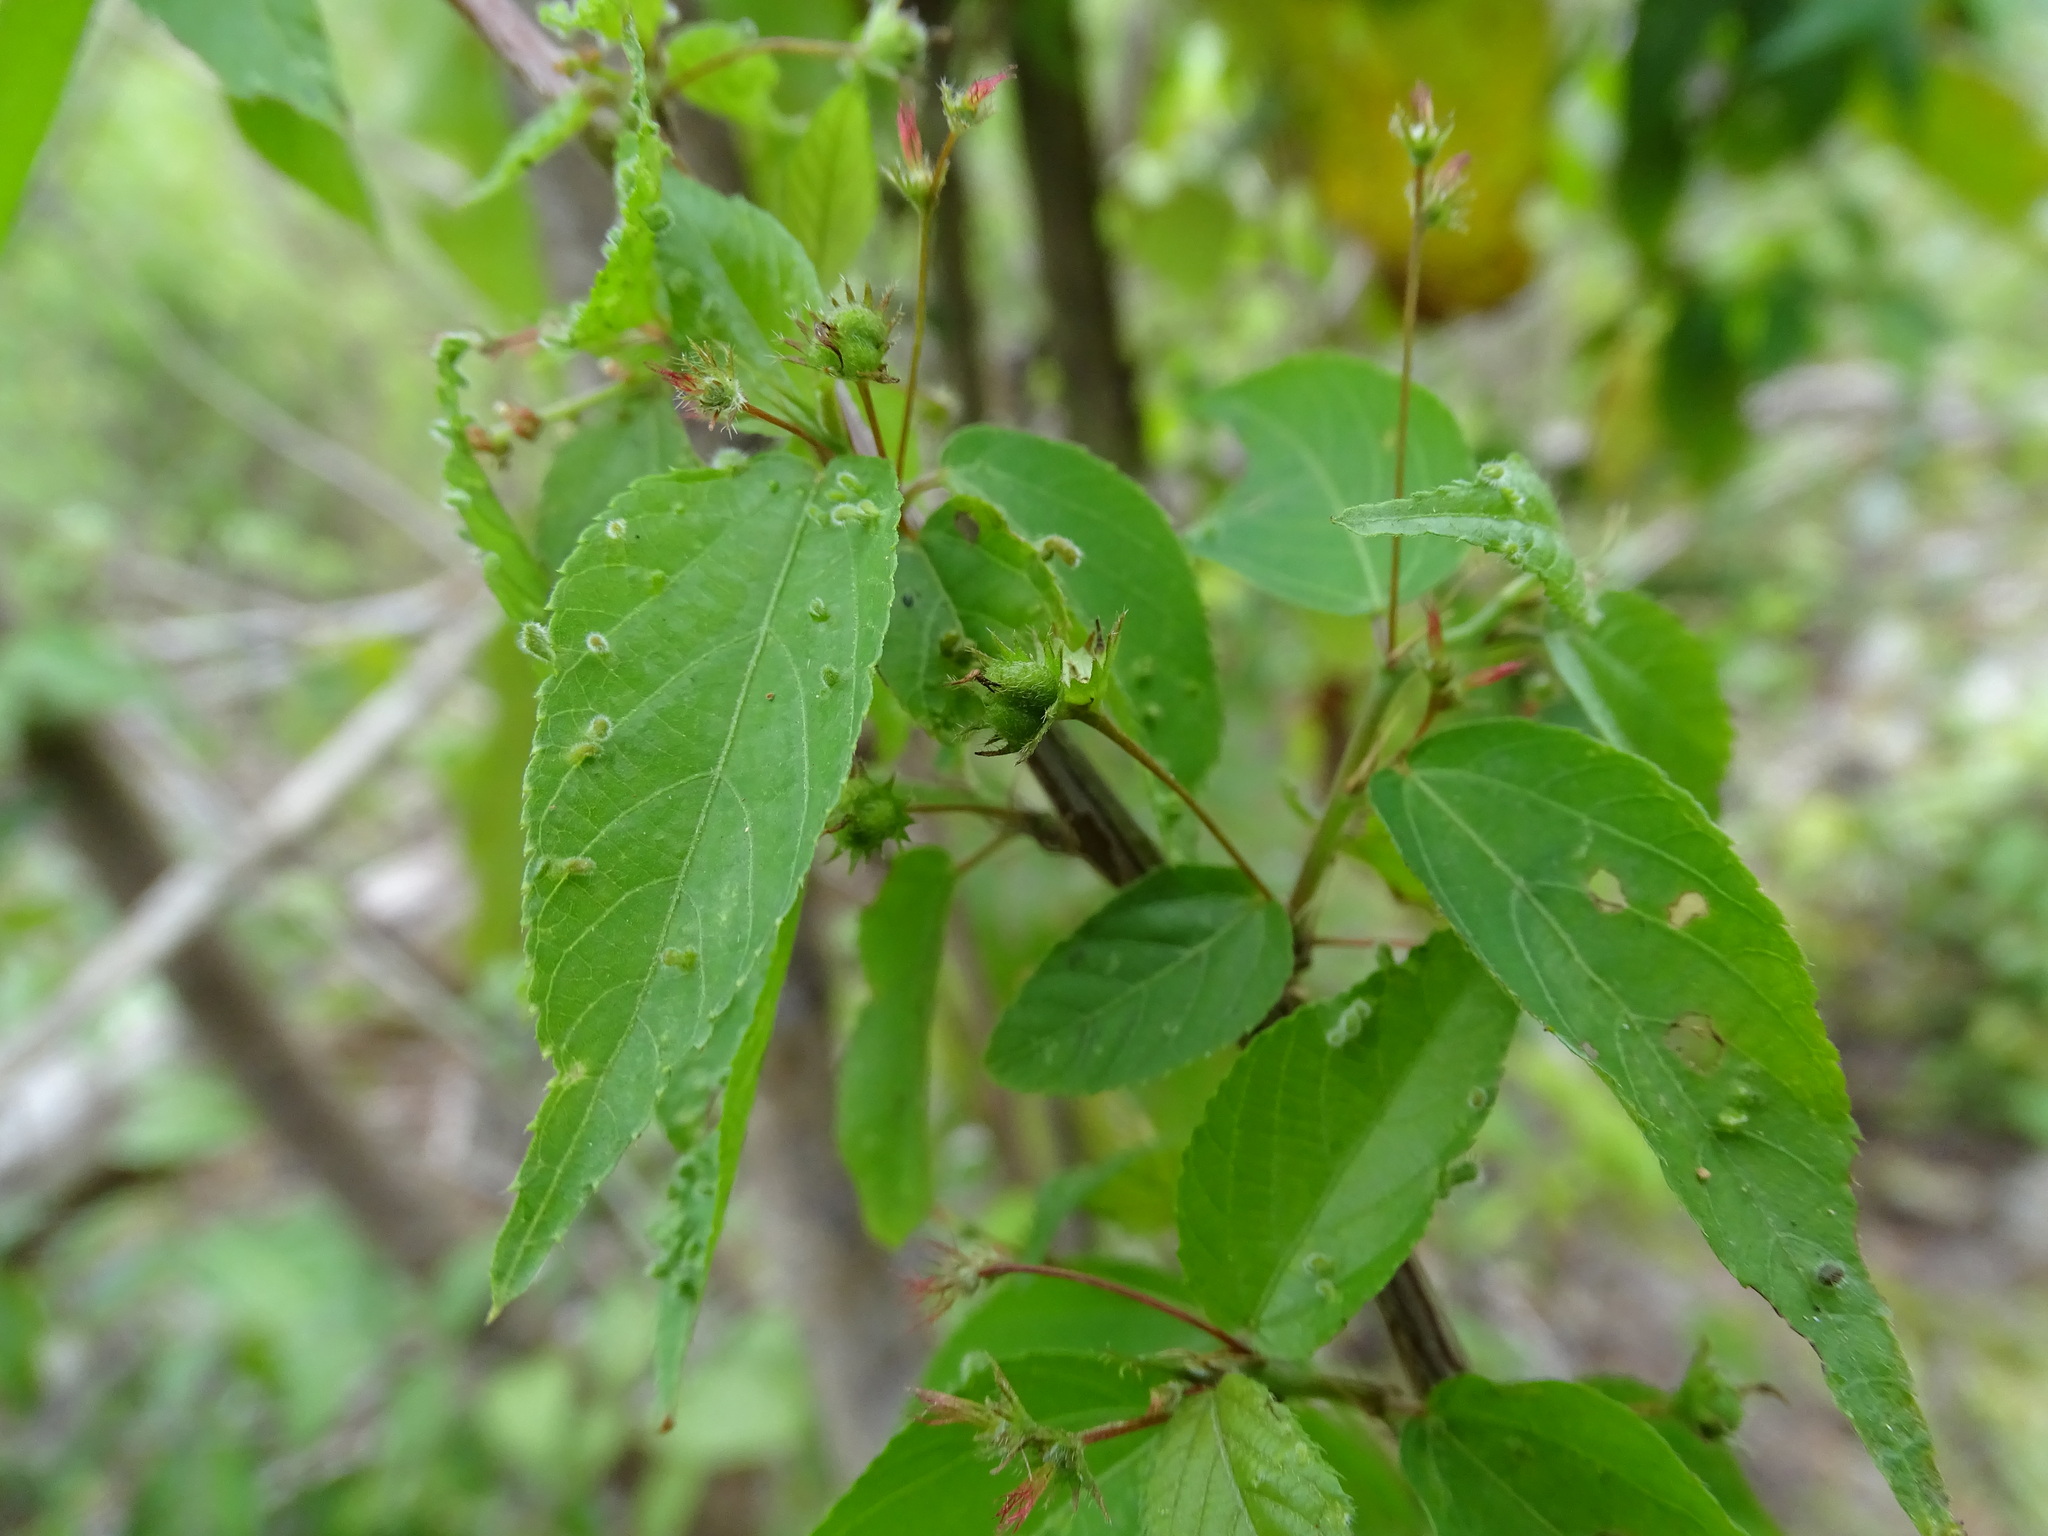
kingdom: Plantae
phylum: Tracheophyta
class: Magnoliopsida
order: Malpighiales
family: Euphorbiaceae
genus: Acalypha
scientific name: Acalypha leptopoda
